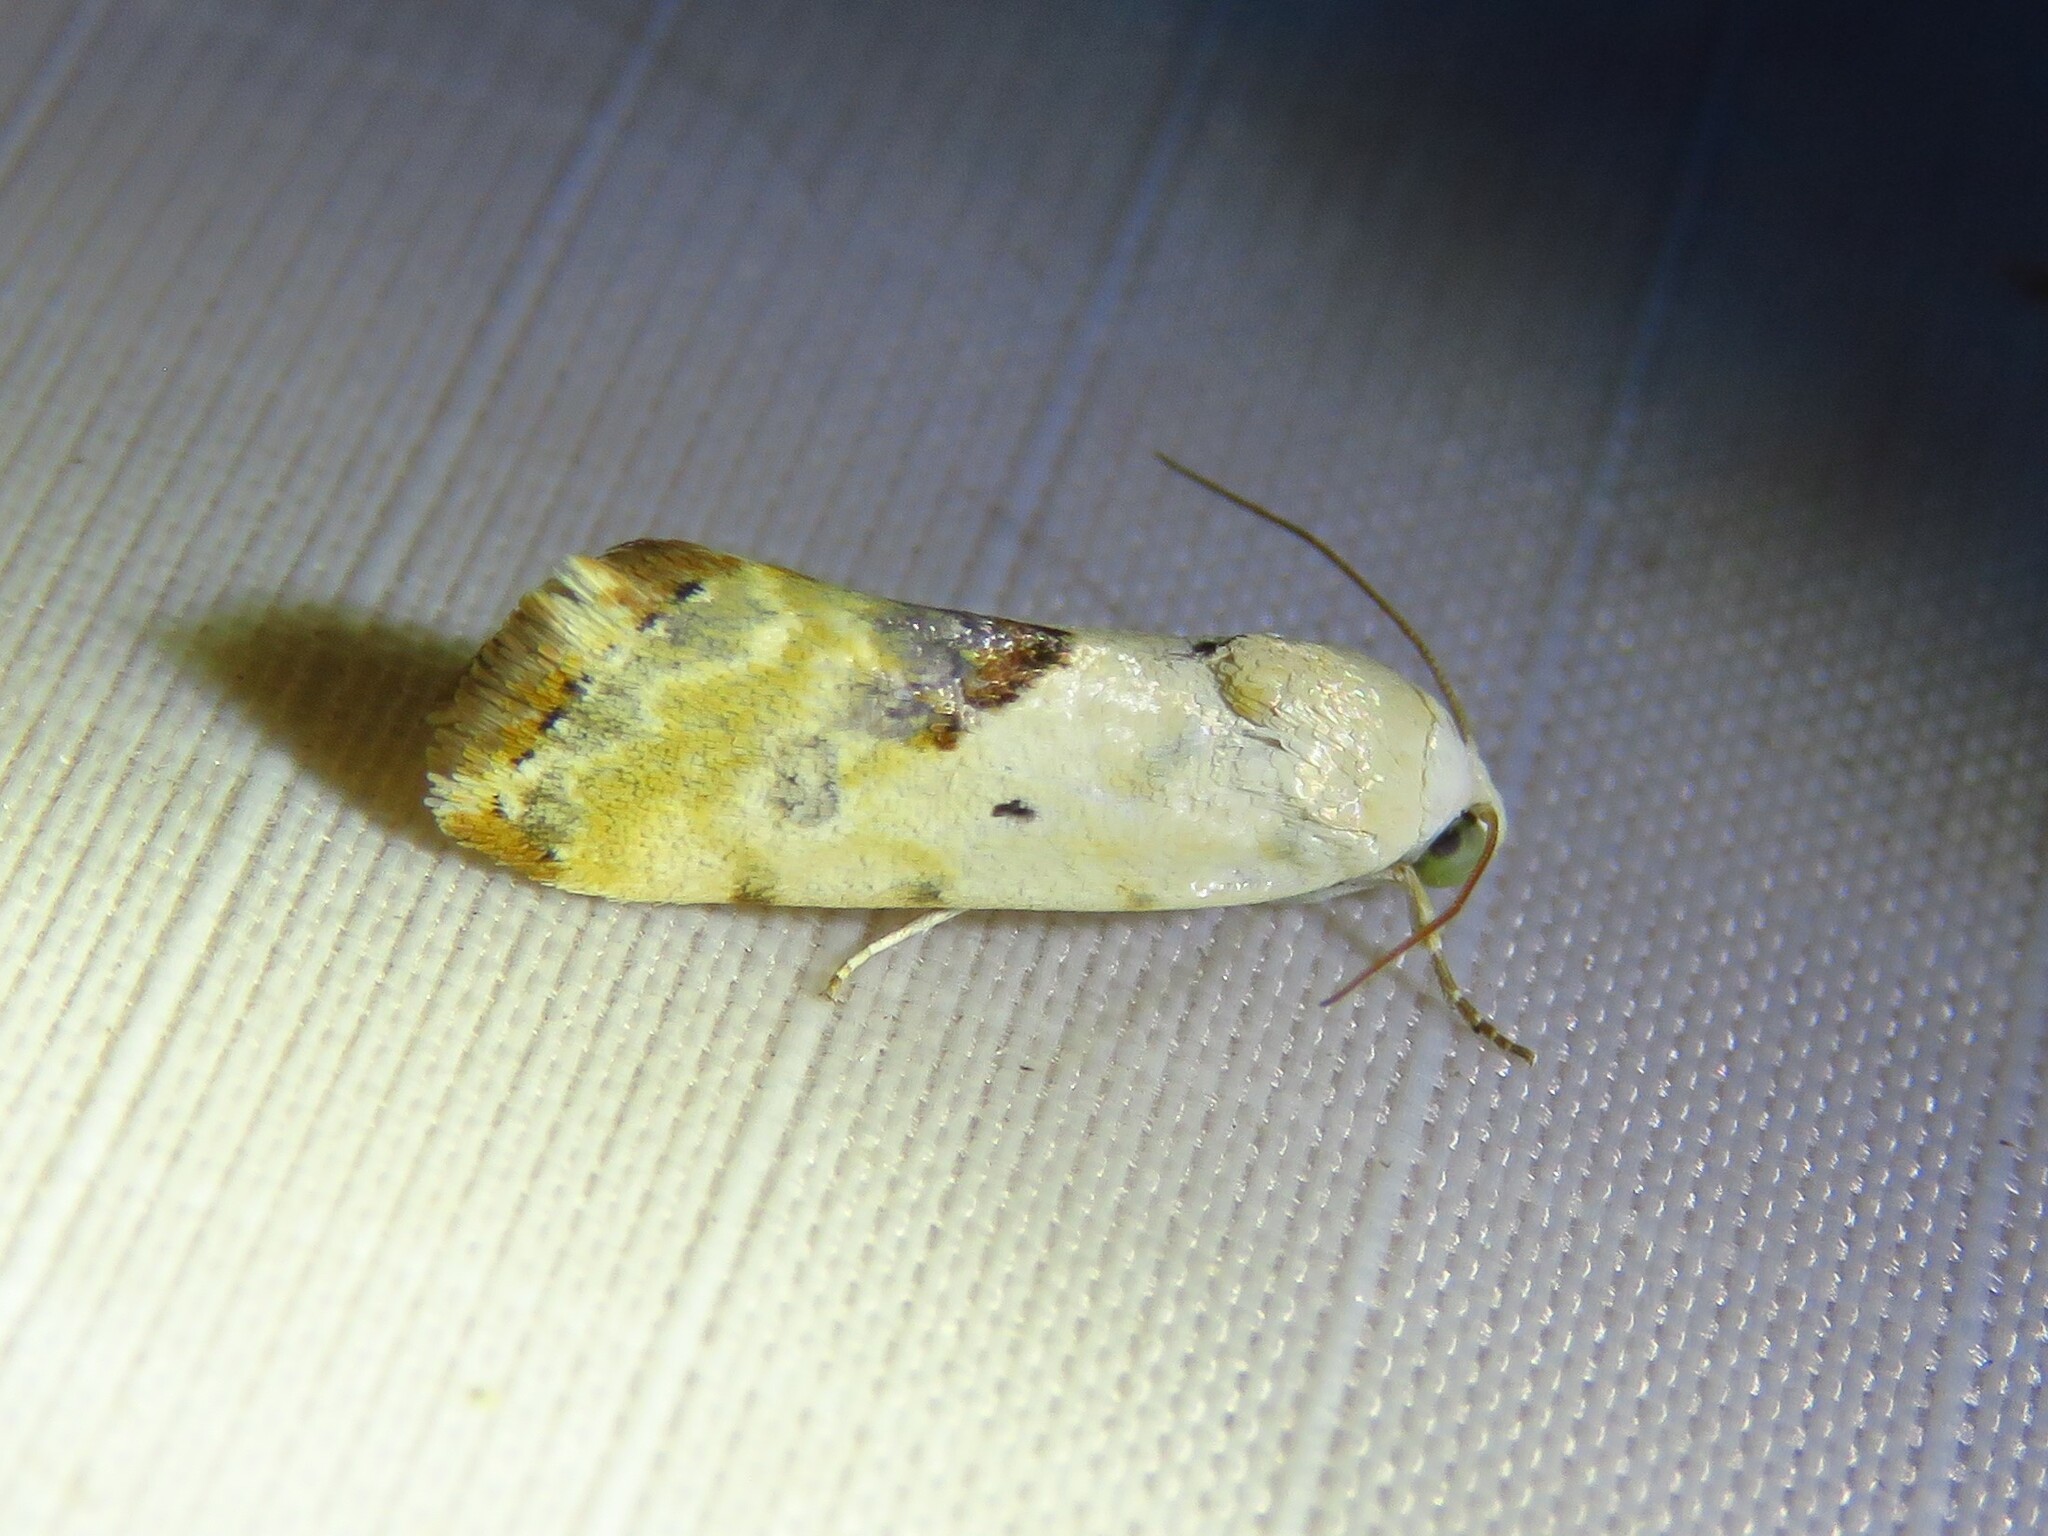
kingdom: Animalia
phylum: Arthropoda
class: Insecta
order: Lepidoptera
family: Noctuidae
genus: Acontia
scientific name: Acontia libedis
